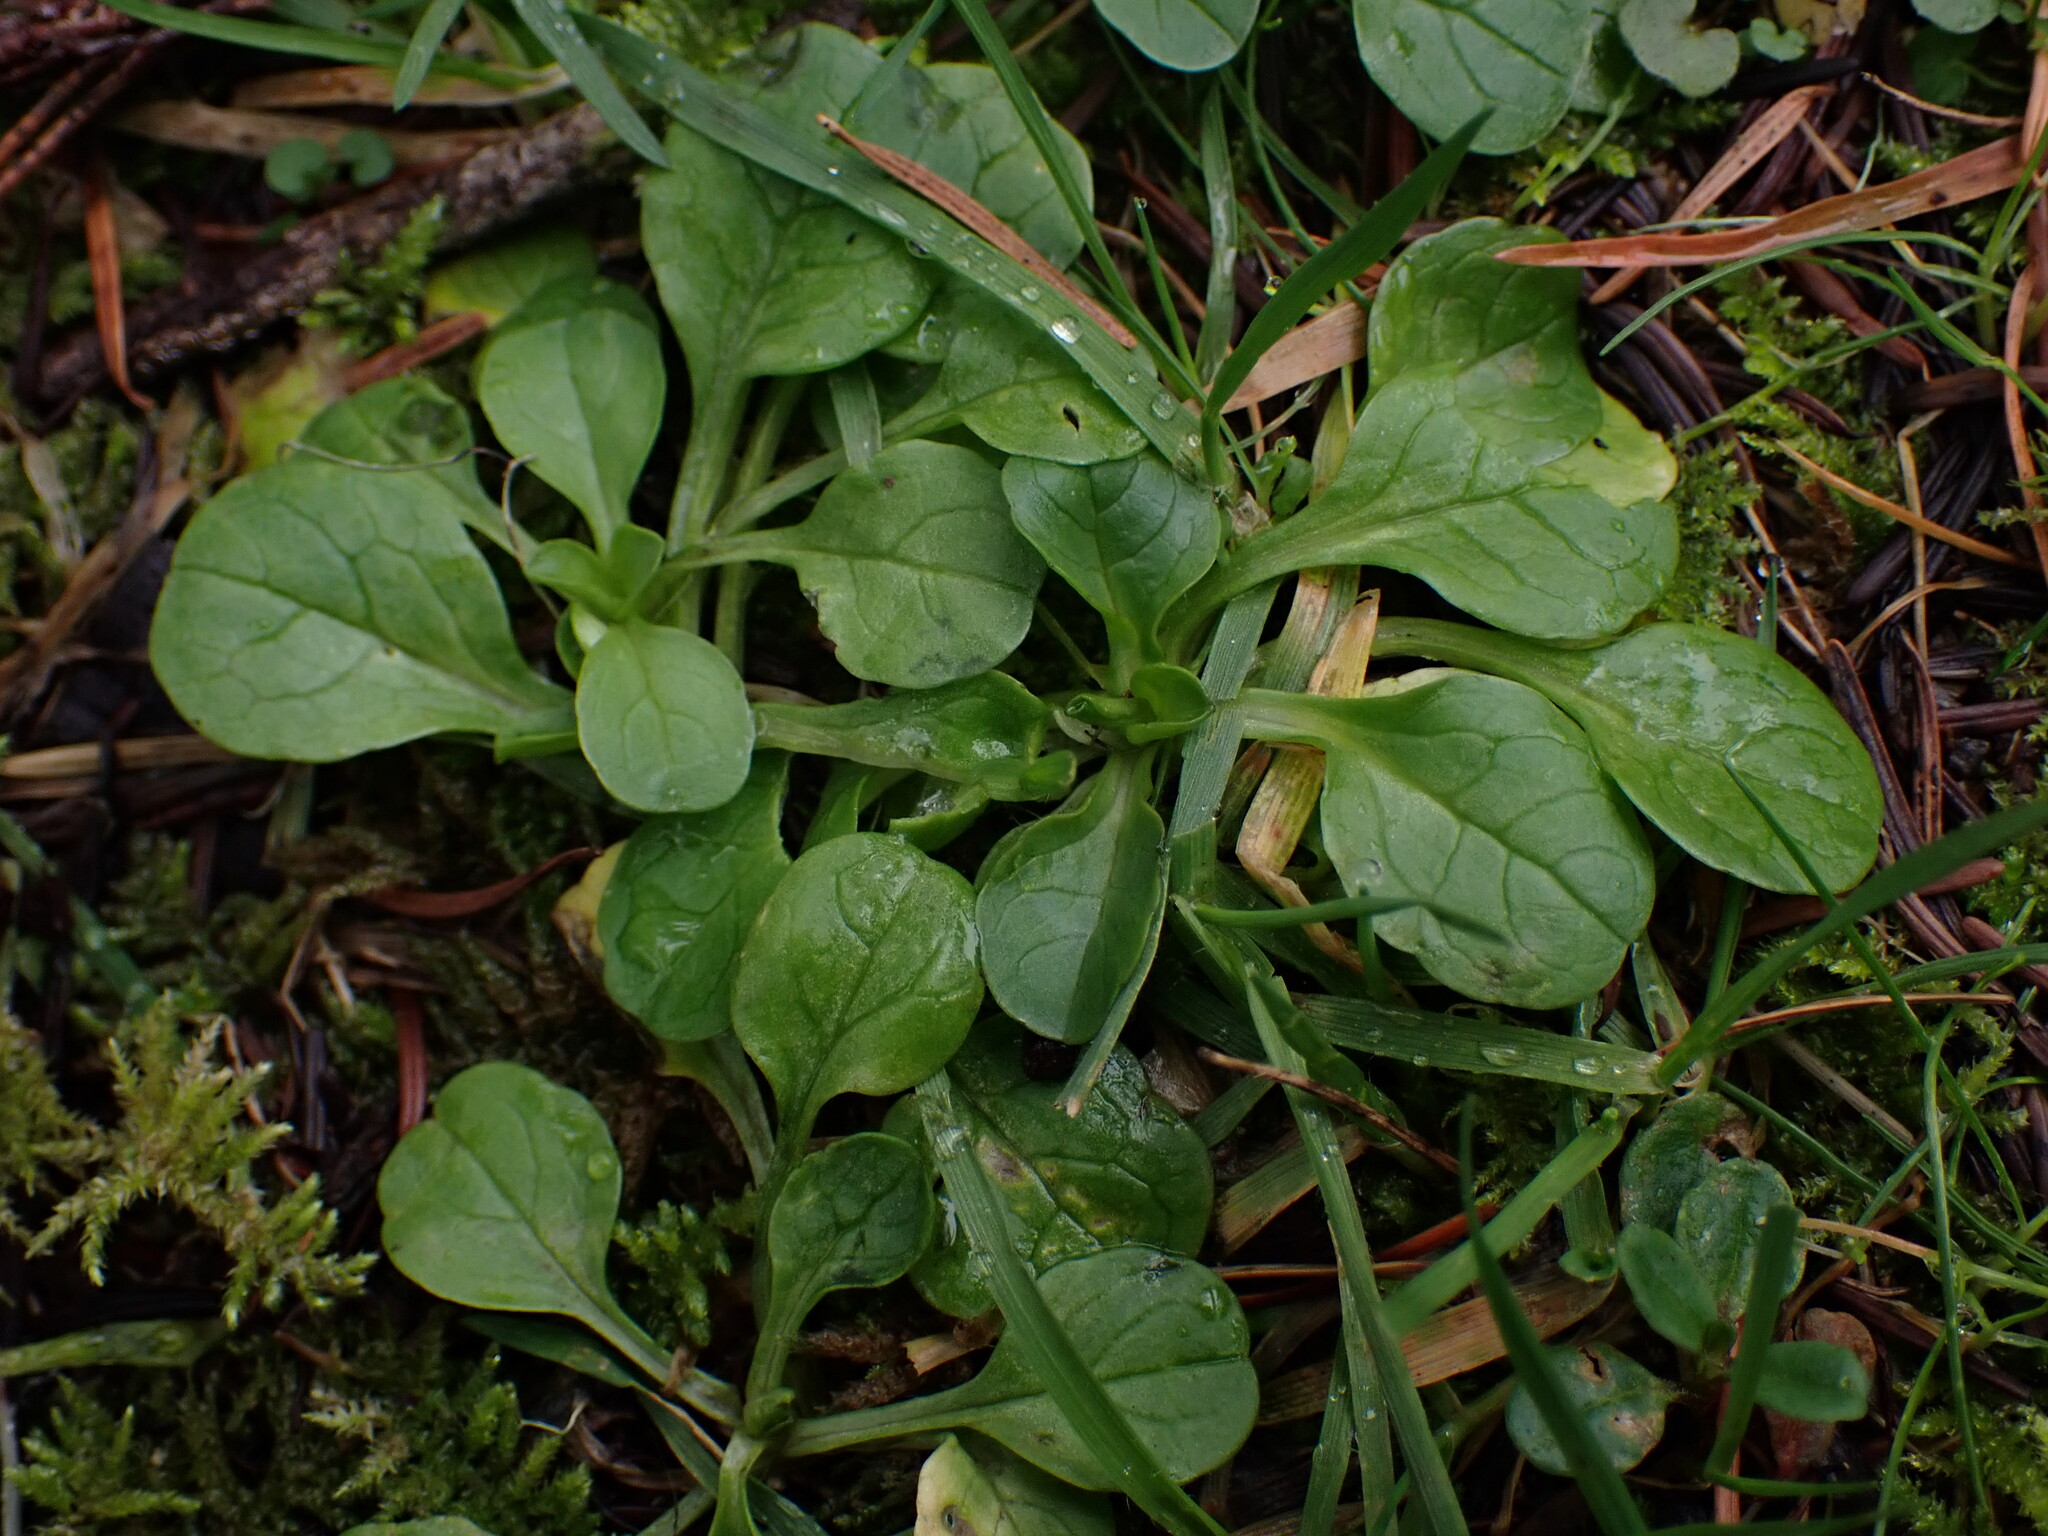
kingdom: Plantae
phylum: Tracheophyta
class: Magnoliopsida
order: Dipsacales
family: Caprifoliaceae
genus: Plectritis
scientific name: Plectritis congesta
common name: Pink plectritis
